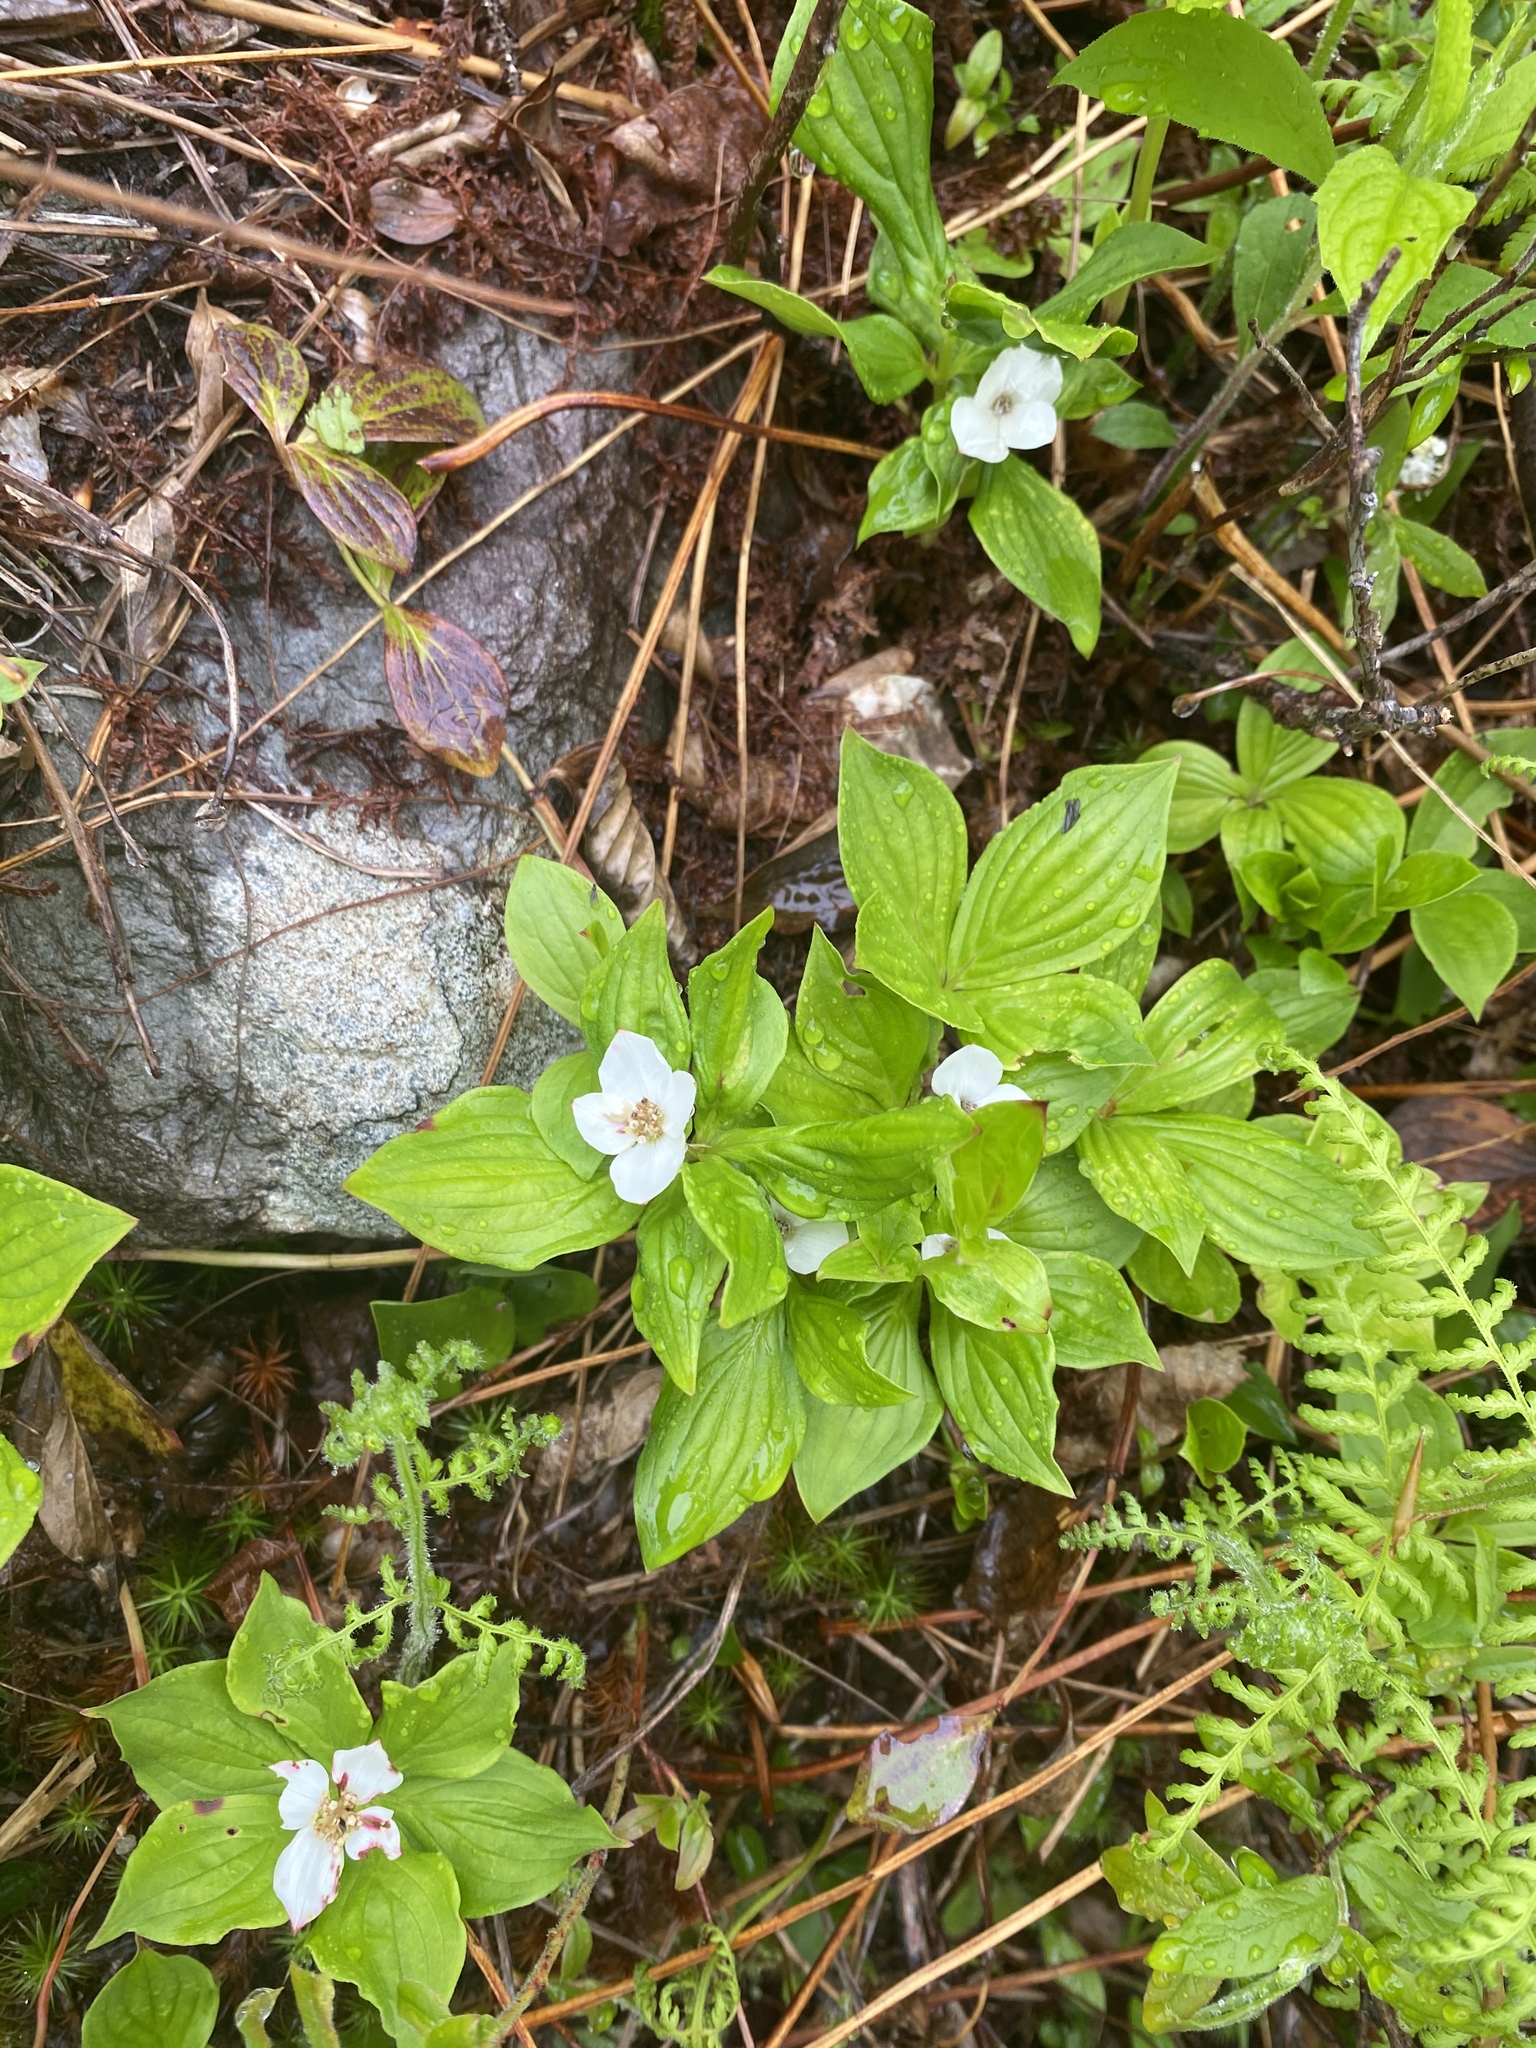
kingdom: Plantae
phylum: Tracheophyta
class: Magnoliopsida
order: Cornales
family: Cornaceae
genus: Cornus
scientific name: Cornus canadensis
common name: Creeping dogwood
